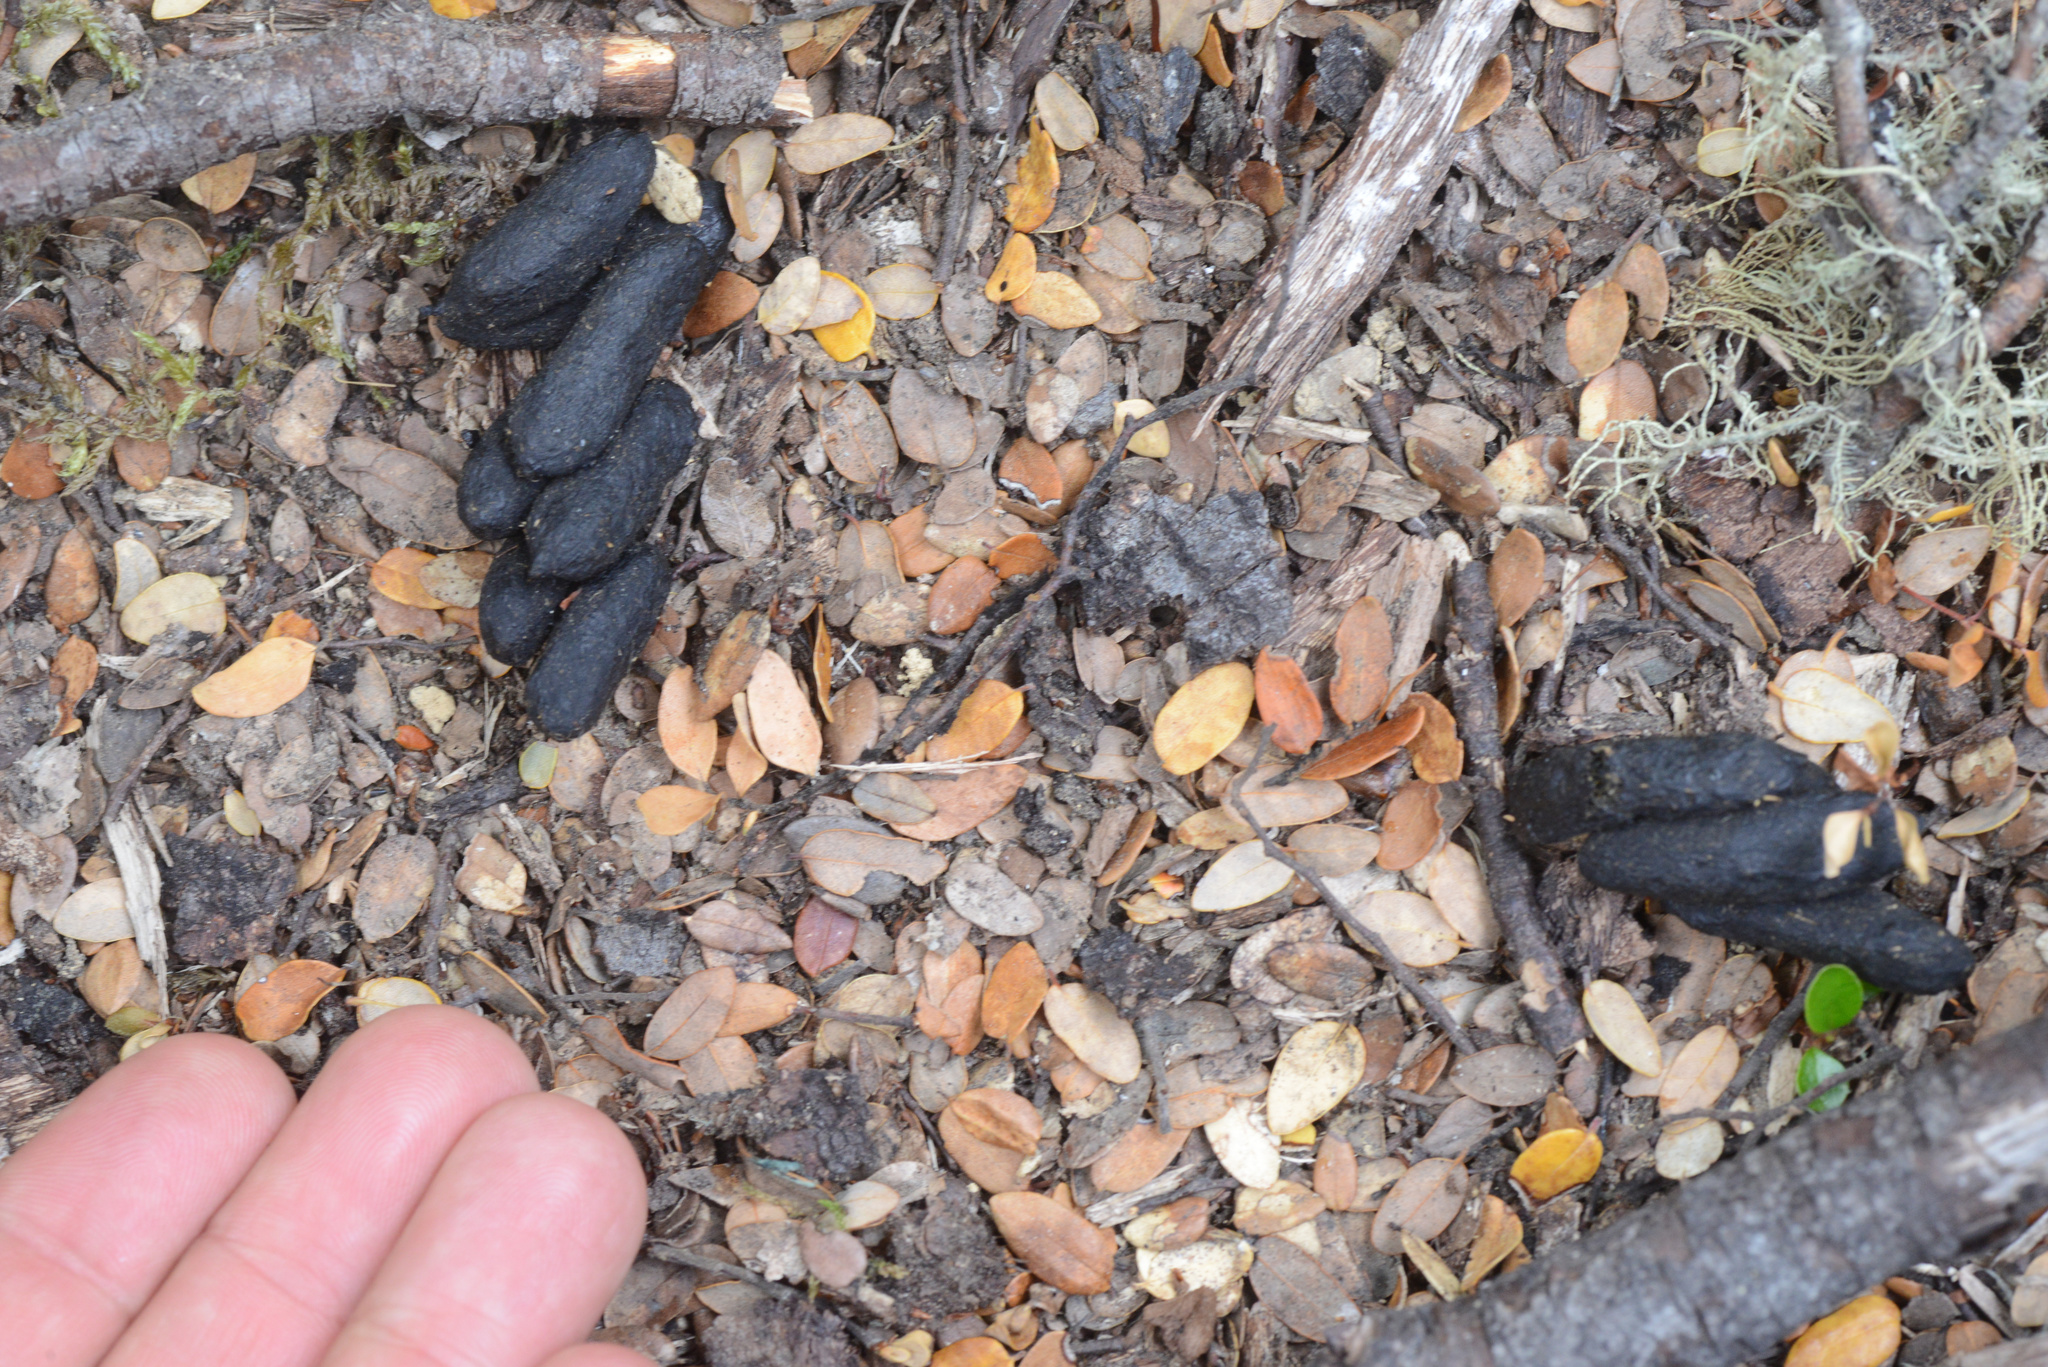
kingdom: Animalia
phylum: Chordata
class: Mammalia
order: Diprotodontia
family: Phalangeridae
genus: Trichosurus
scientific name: Trichosurus vulpecula
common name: Common brushtail
